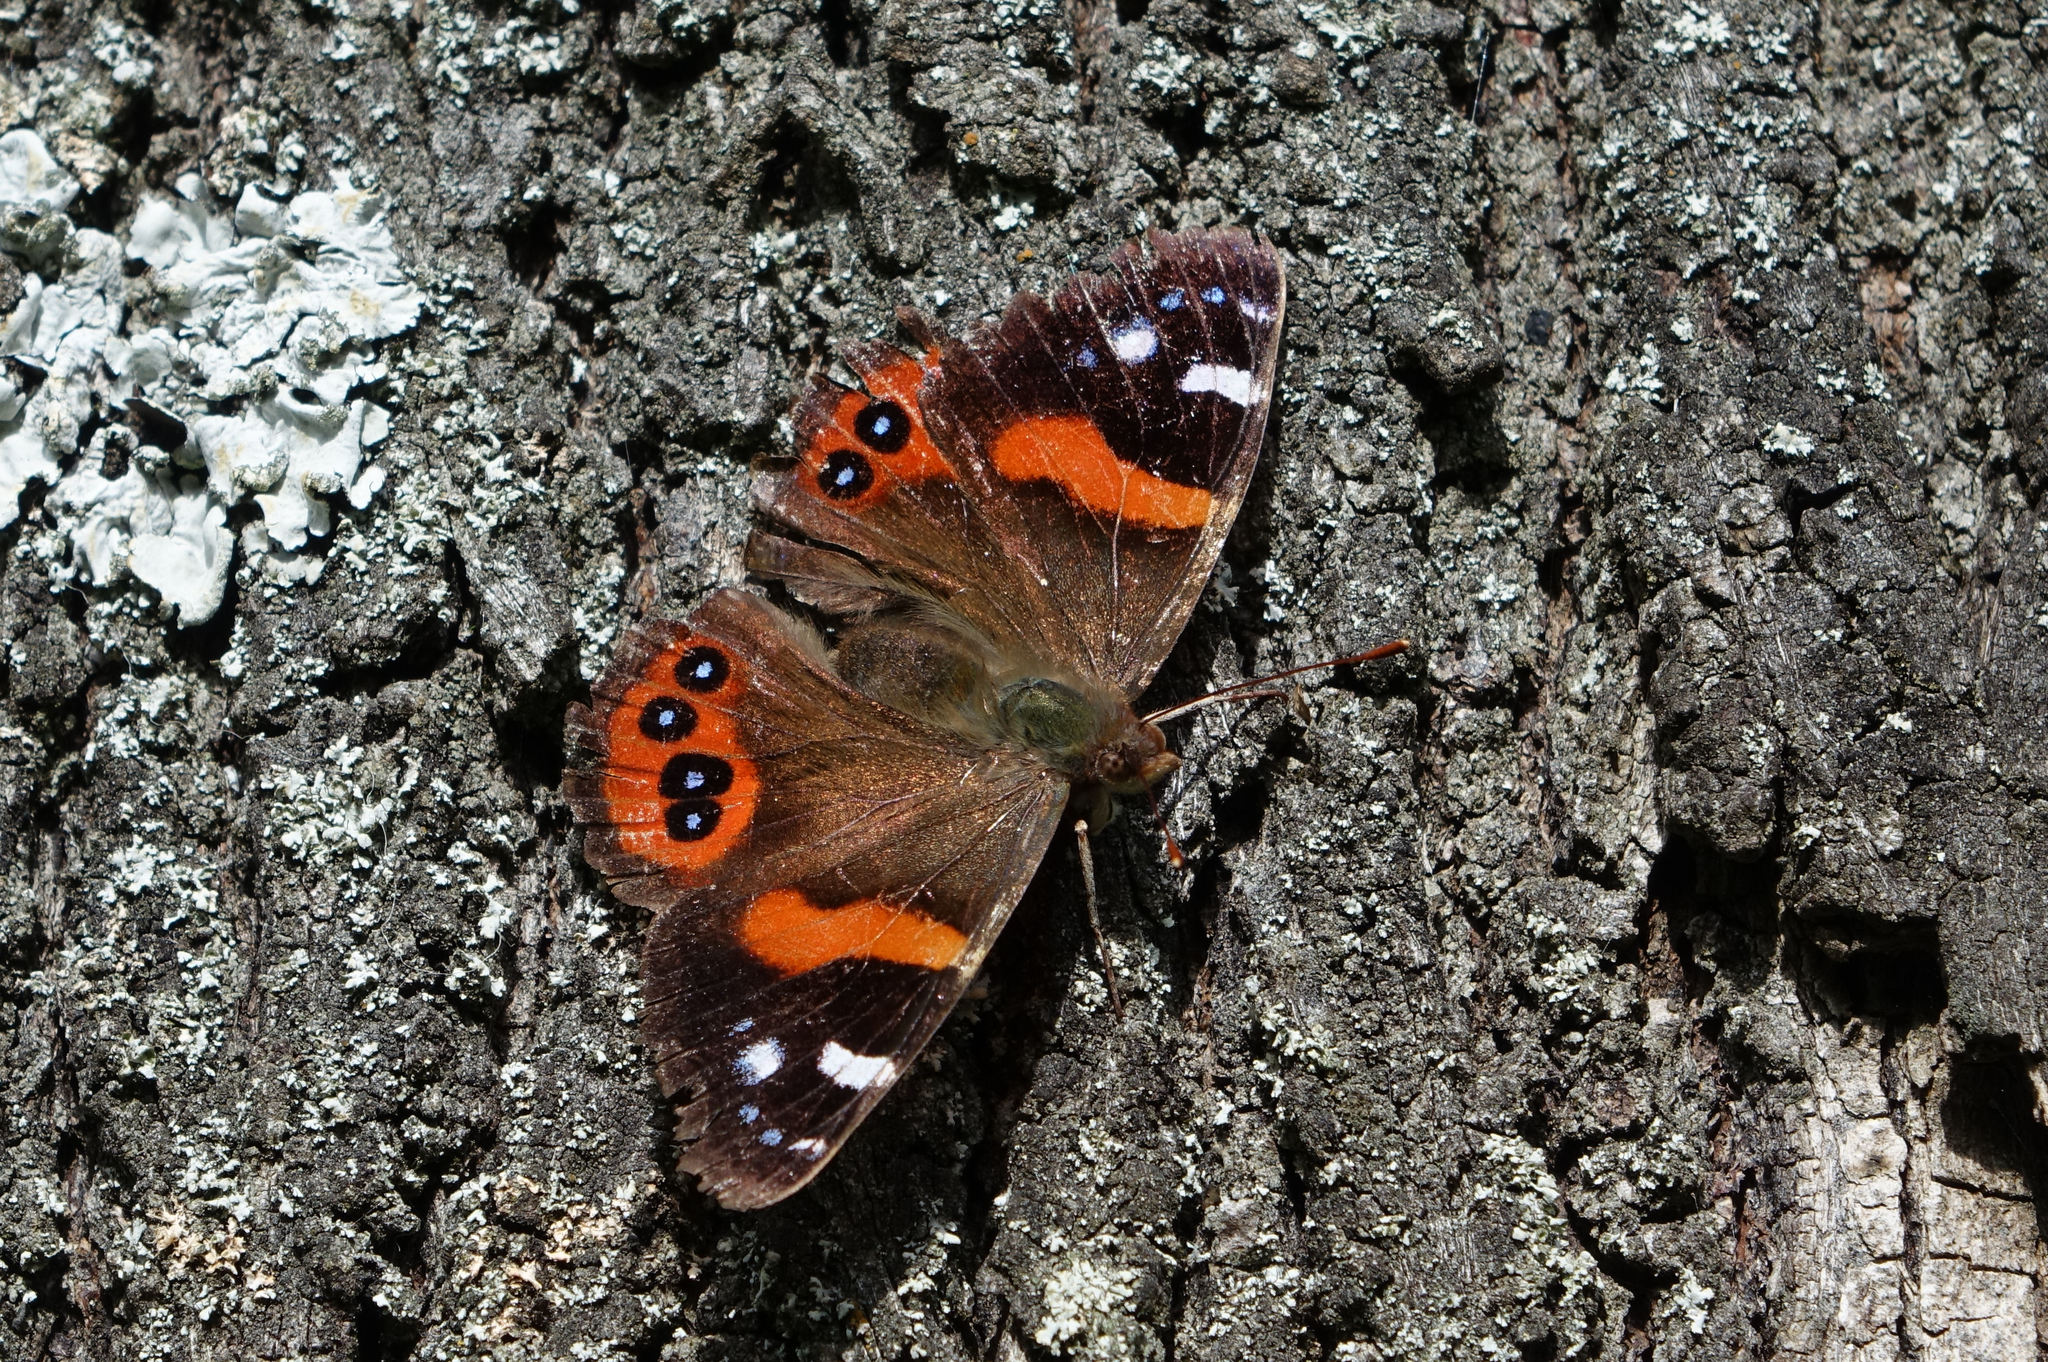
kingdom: Animalia
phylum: Arthropoda
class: Insecta
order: Lepidoptera
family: Nymphalidae
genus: Vanessa
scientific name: Vanessa gonerilla
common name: New zealand red admiral
